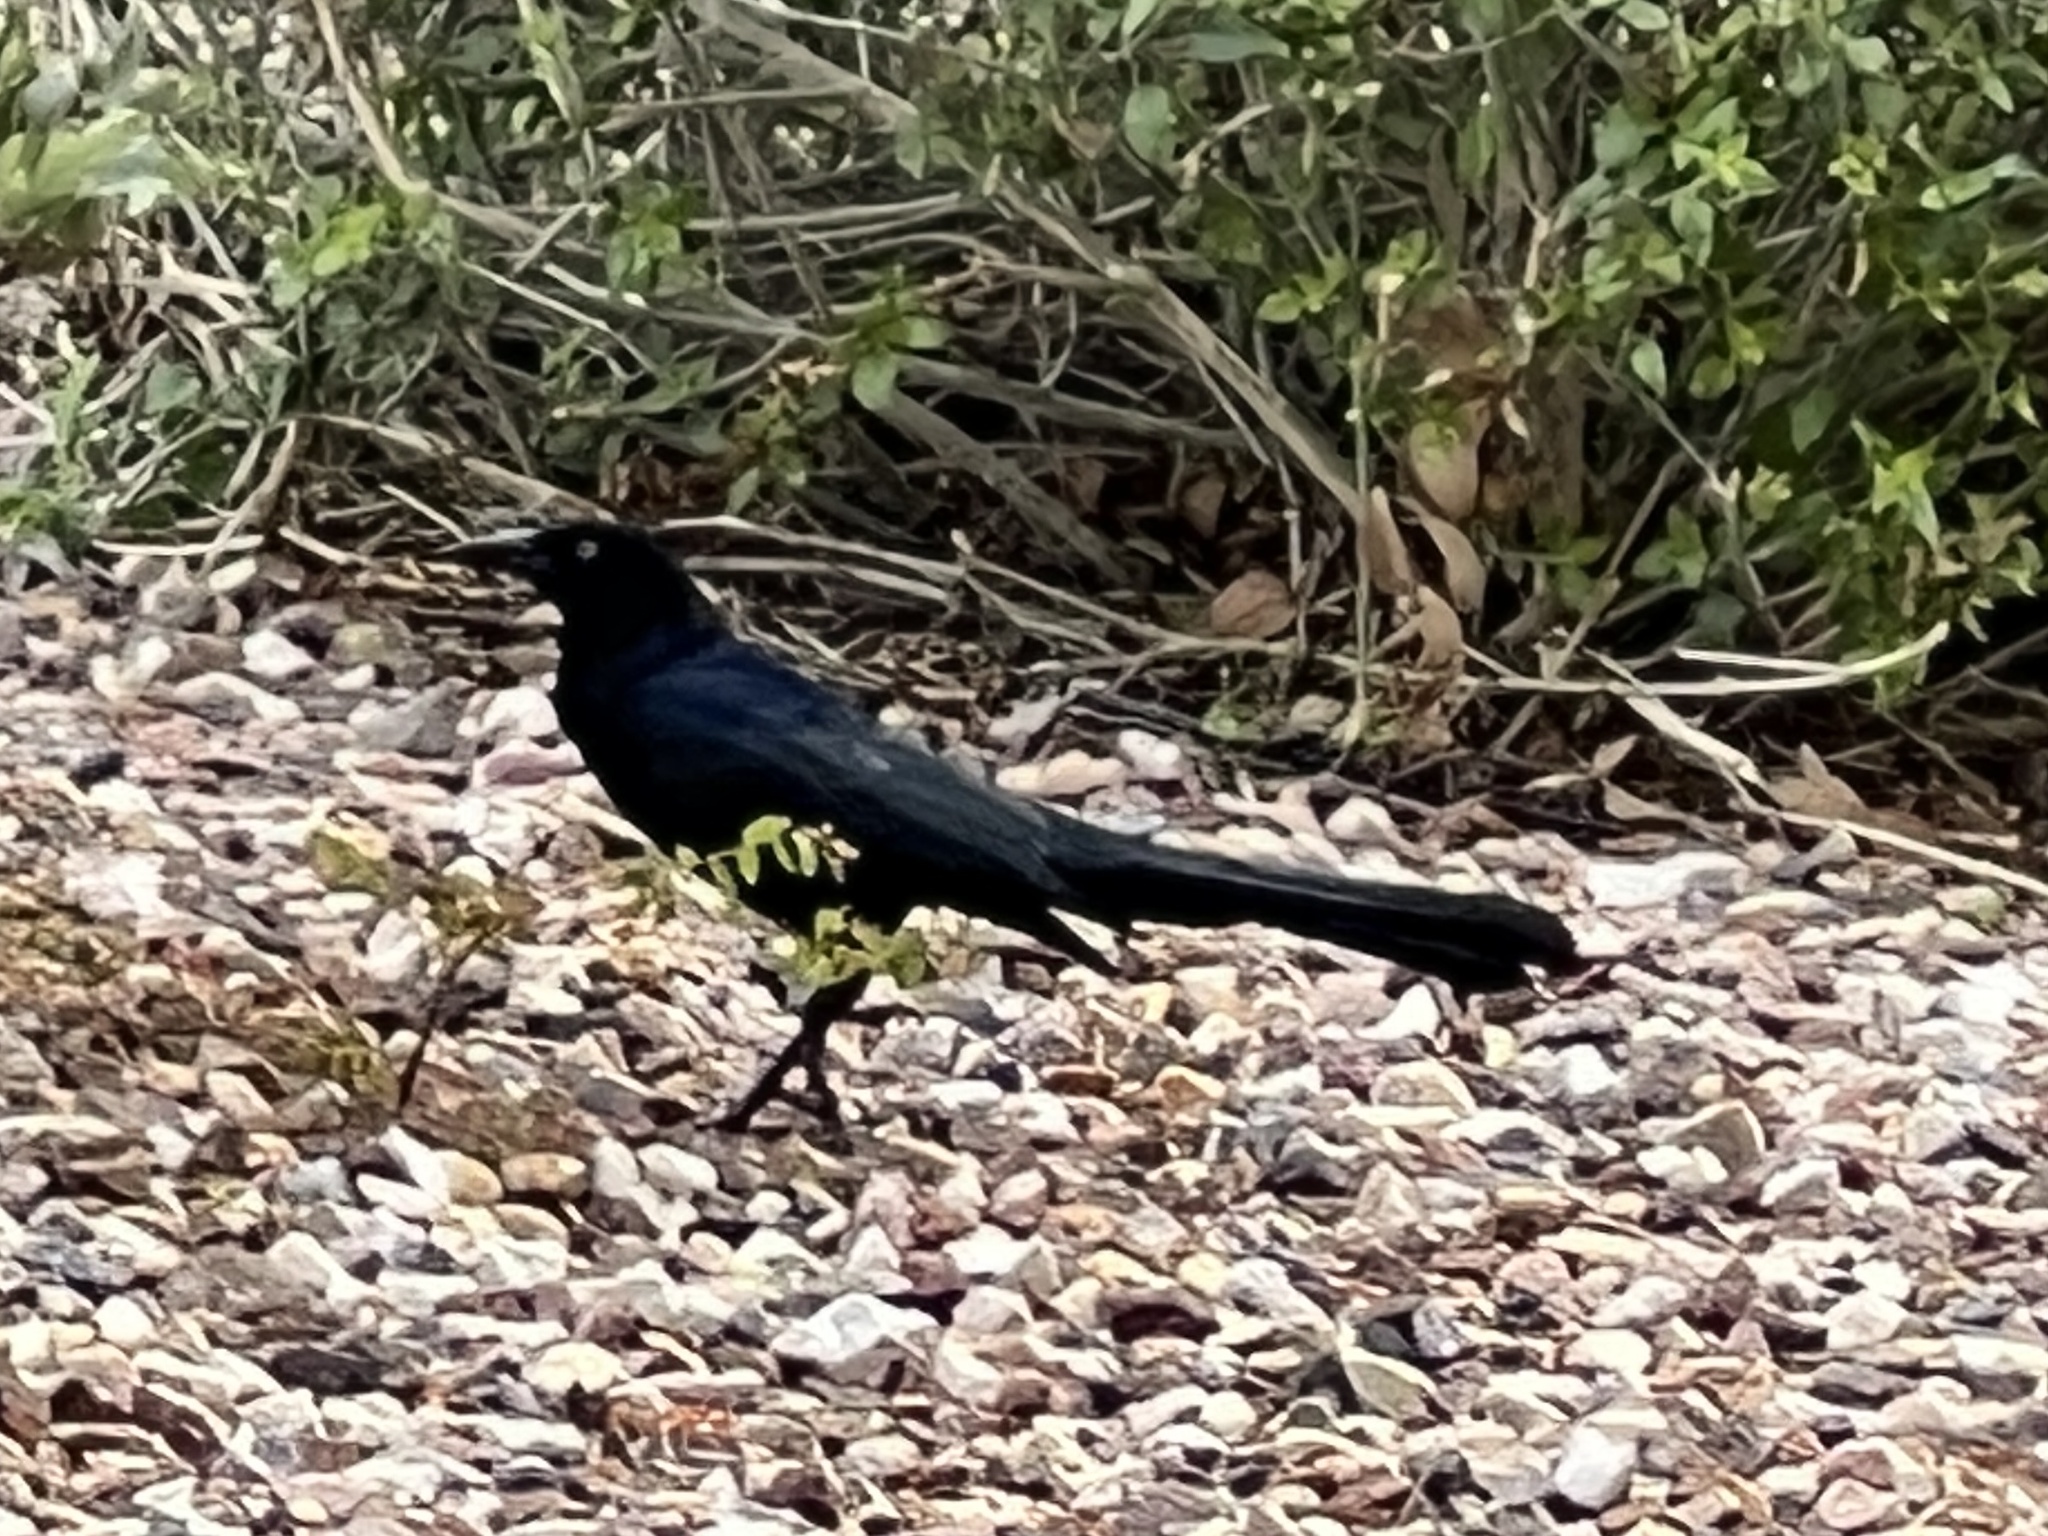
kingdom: Animalia
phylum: Chordata
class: Aves
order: Passeriformes
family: Icteridae
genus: Quiscalus
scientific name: Quiscalus mexicanus
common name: Great-tailed grackle
